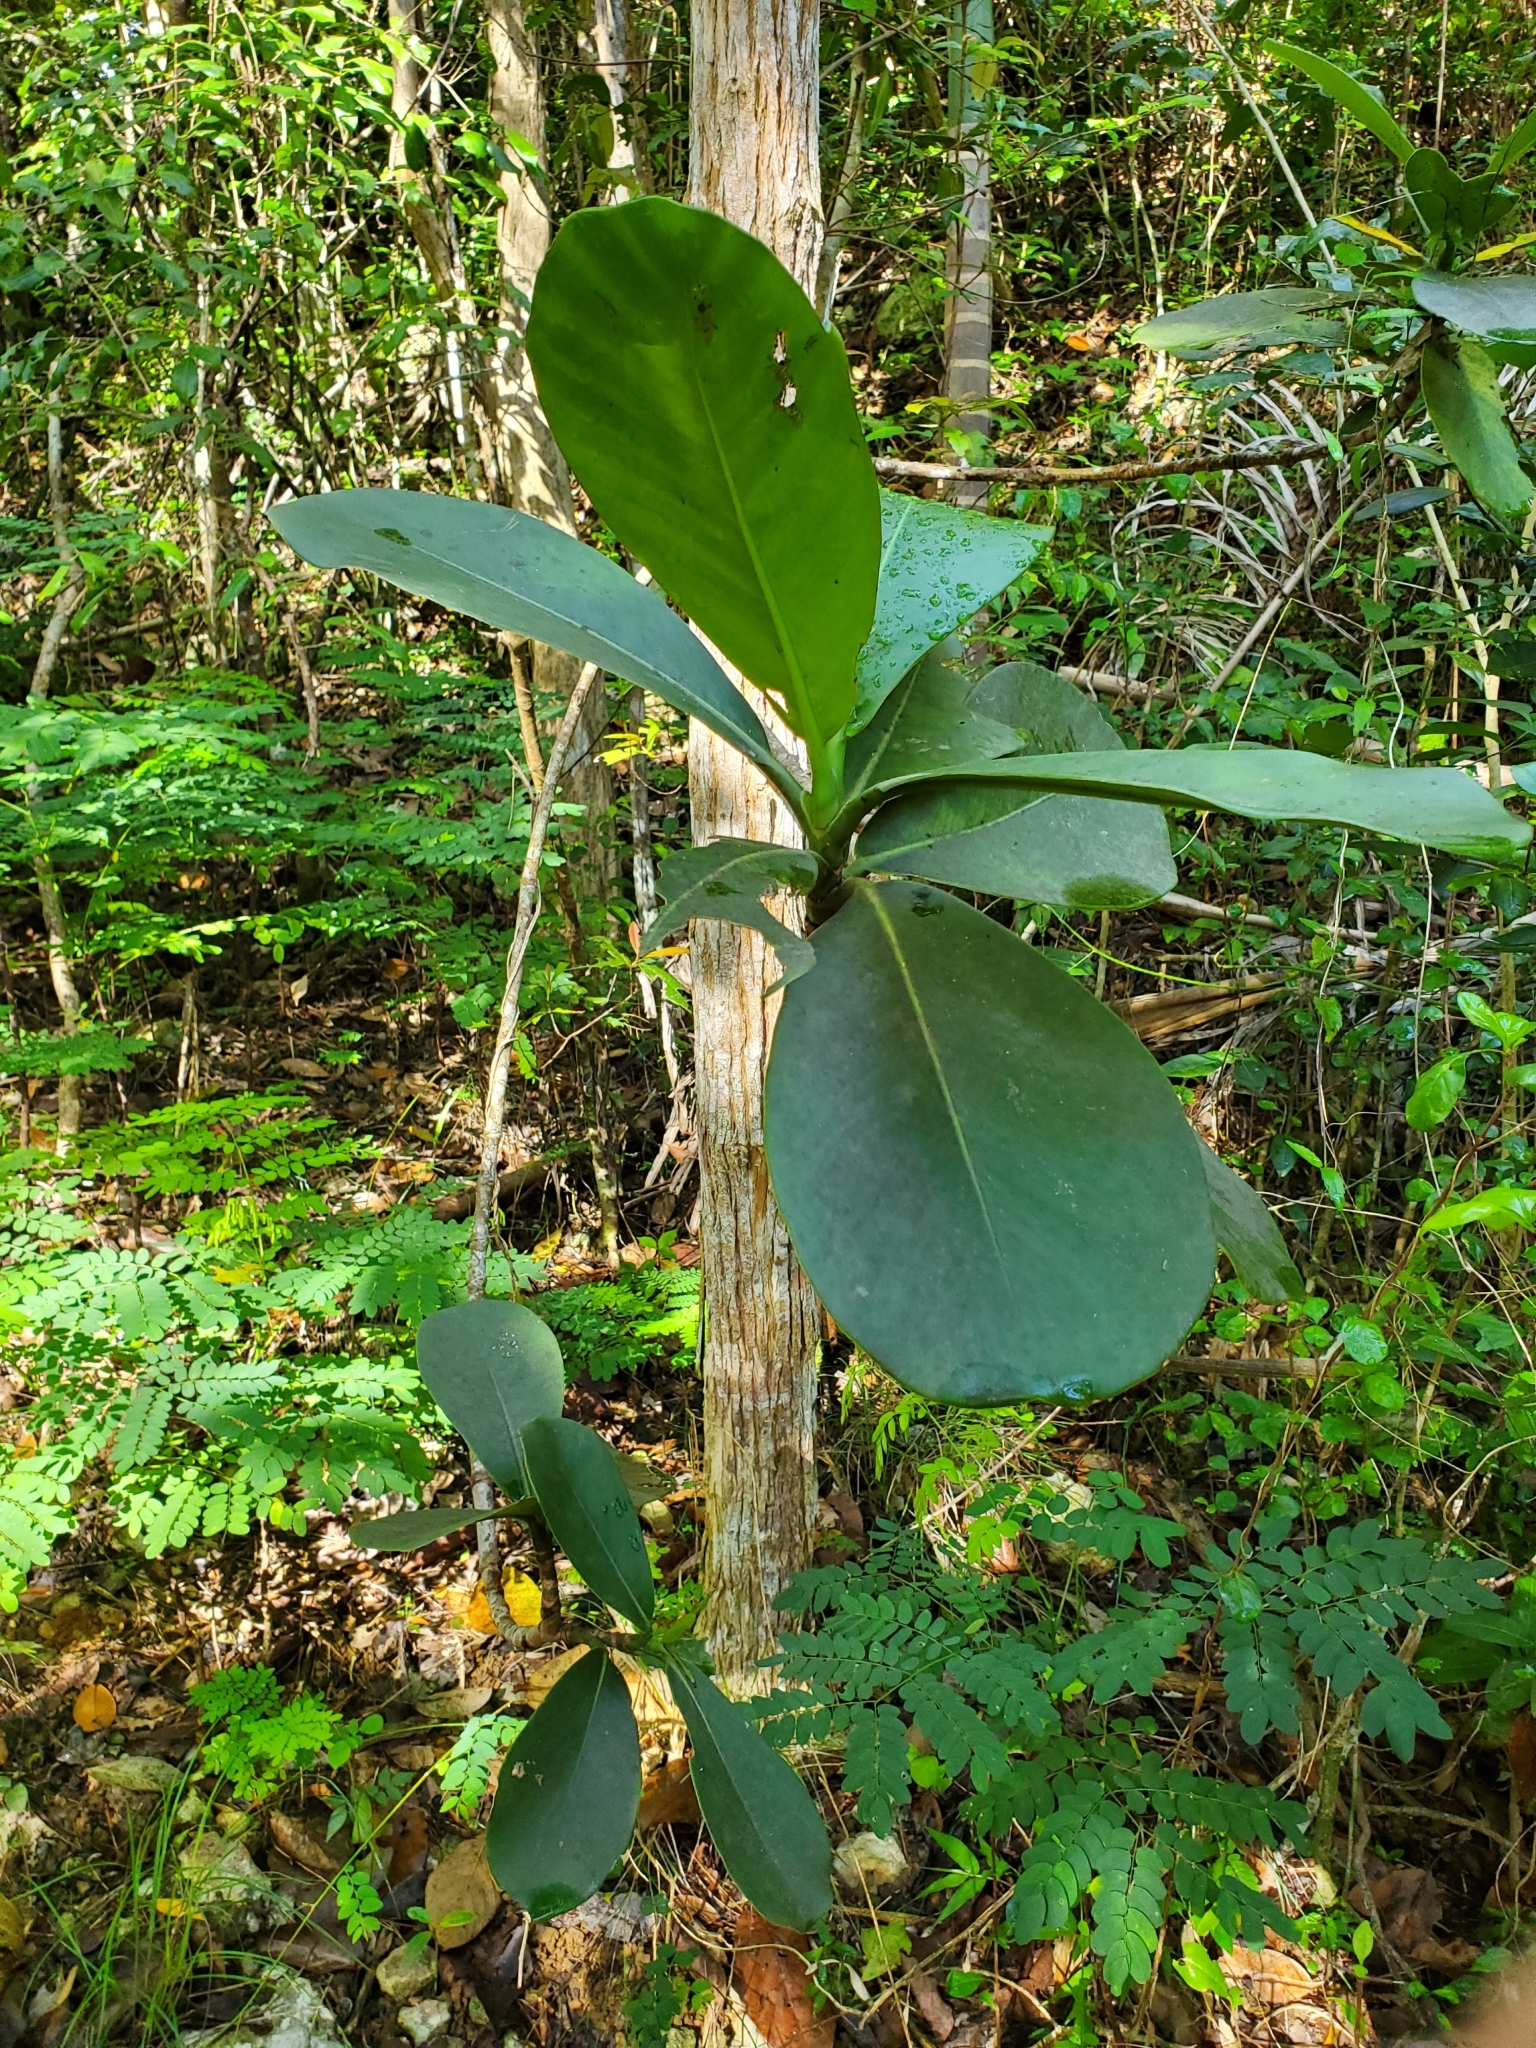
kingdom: Plantae
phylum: Tracheophyta
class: Magnoliopsida
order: Malpighiales
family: Clusiaceae
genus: Clusia
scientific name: Clusia rosea
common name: Scotch attorney
